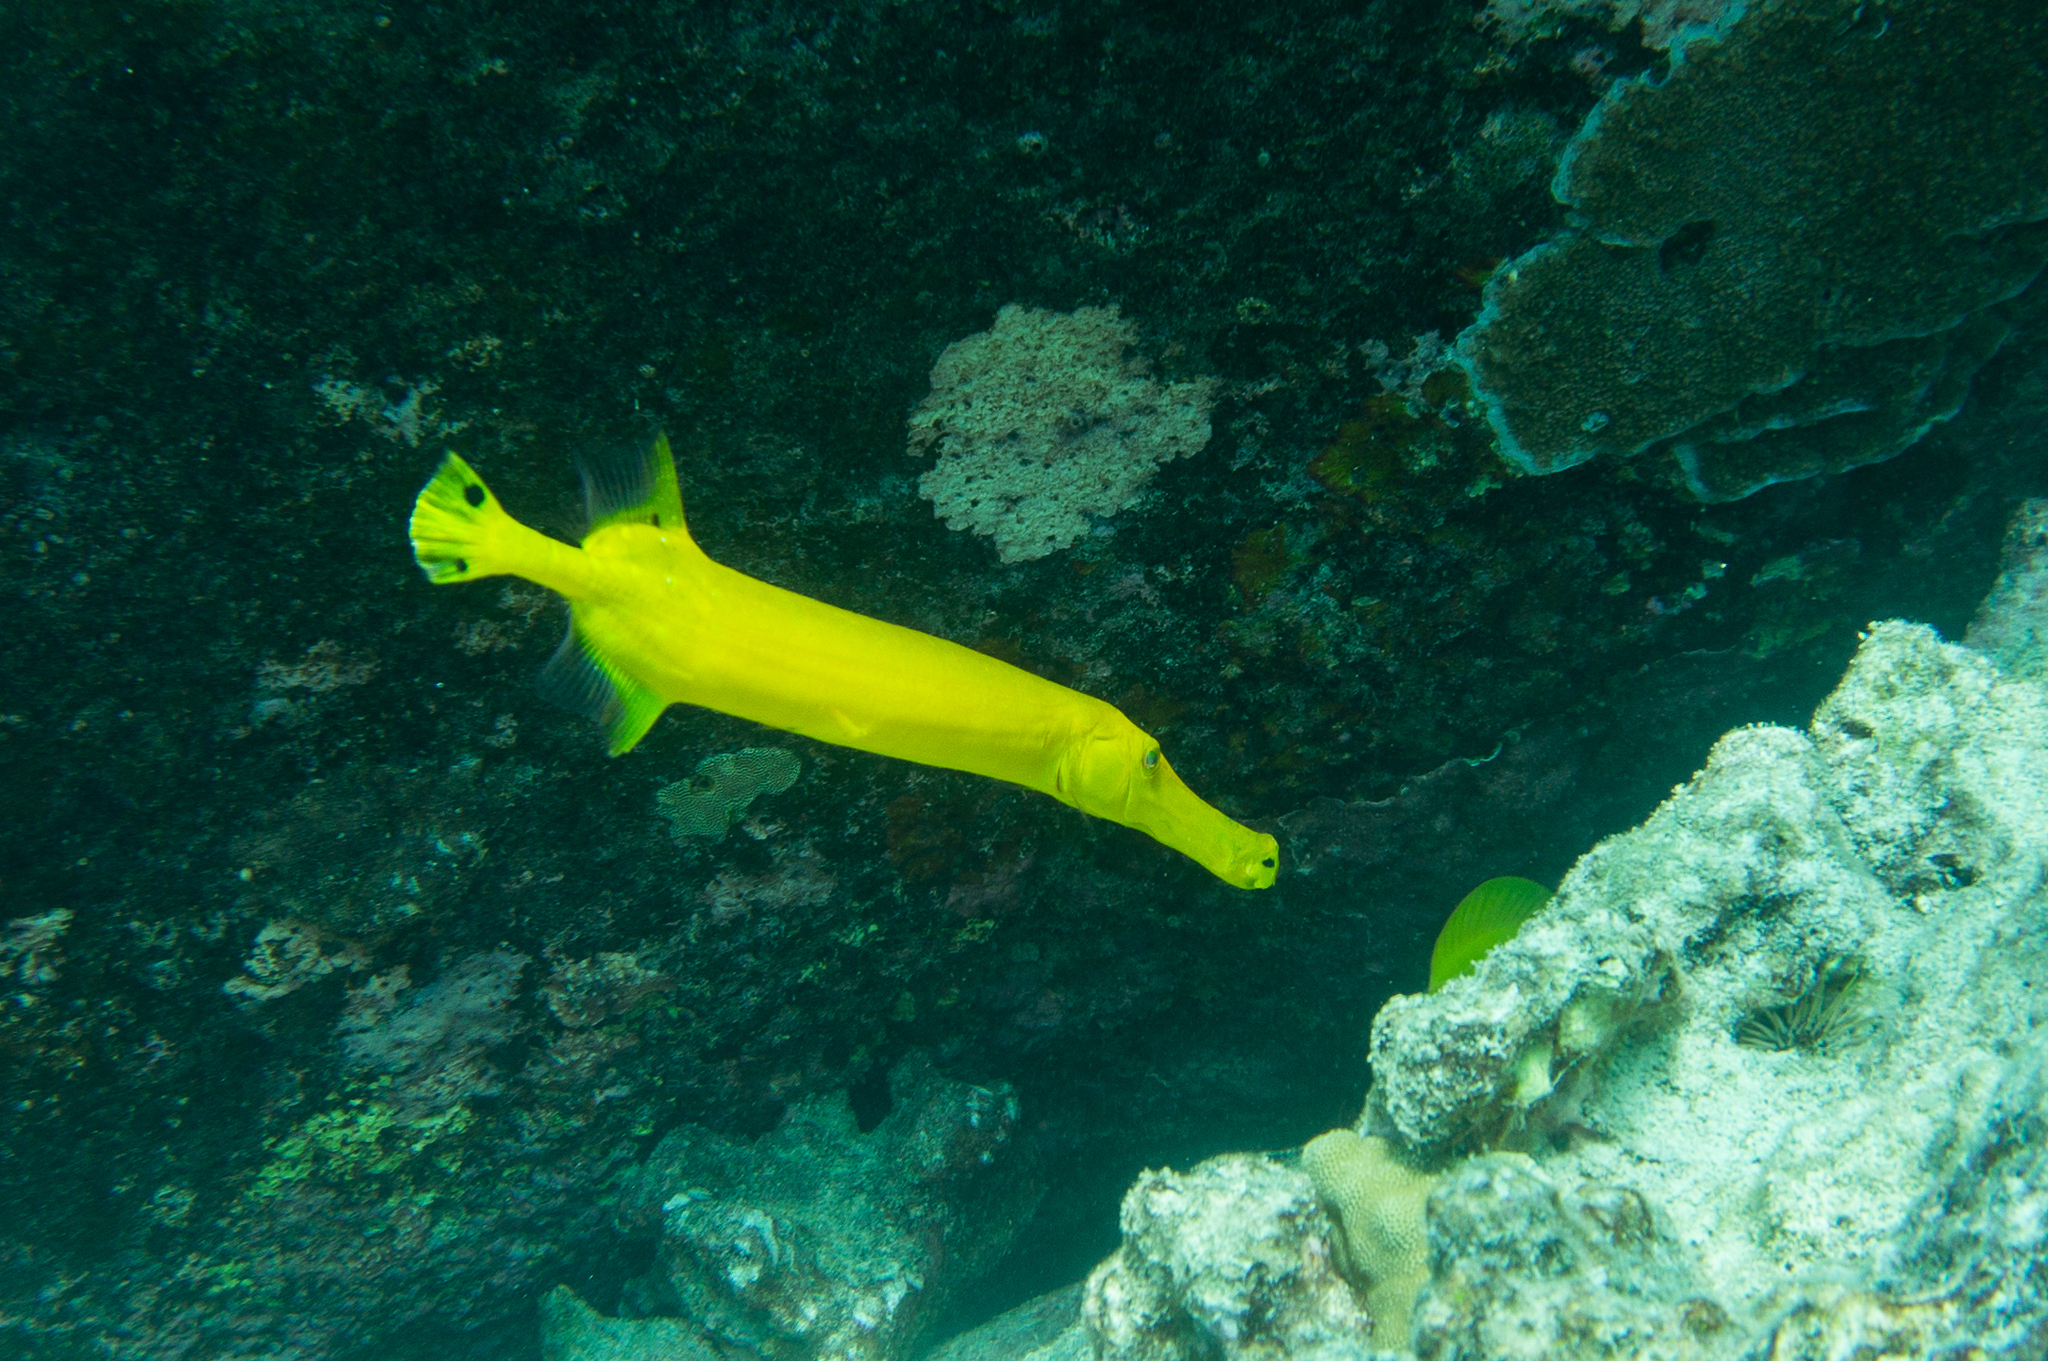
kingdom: Animalia
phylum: Chordata
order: Syngnathiformes
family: Aulostomidae
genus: Aulostomus
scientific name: Aulostomus chinensis
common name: Chinese trumpetfish
